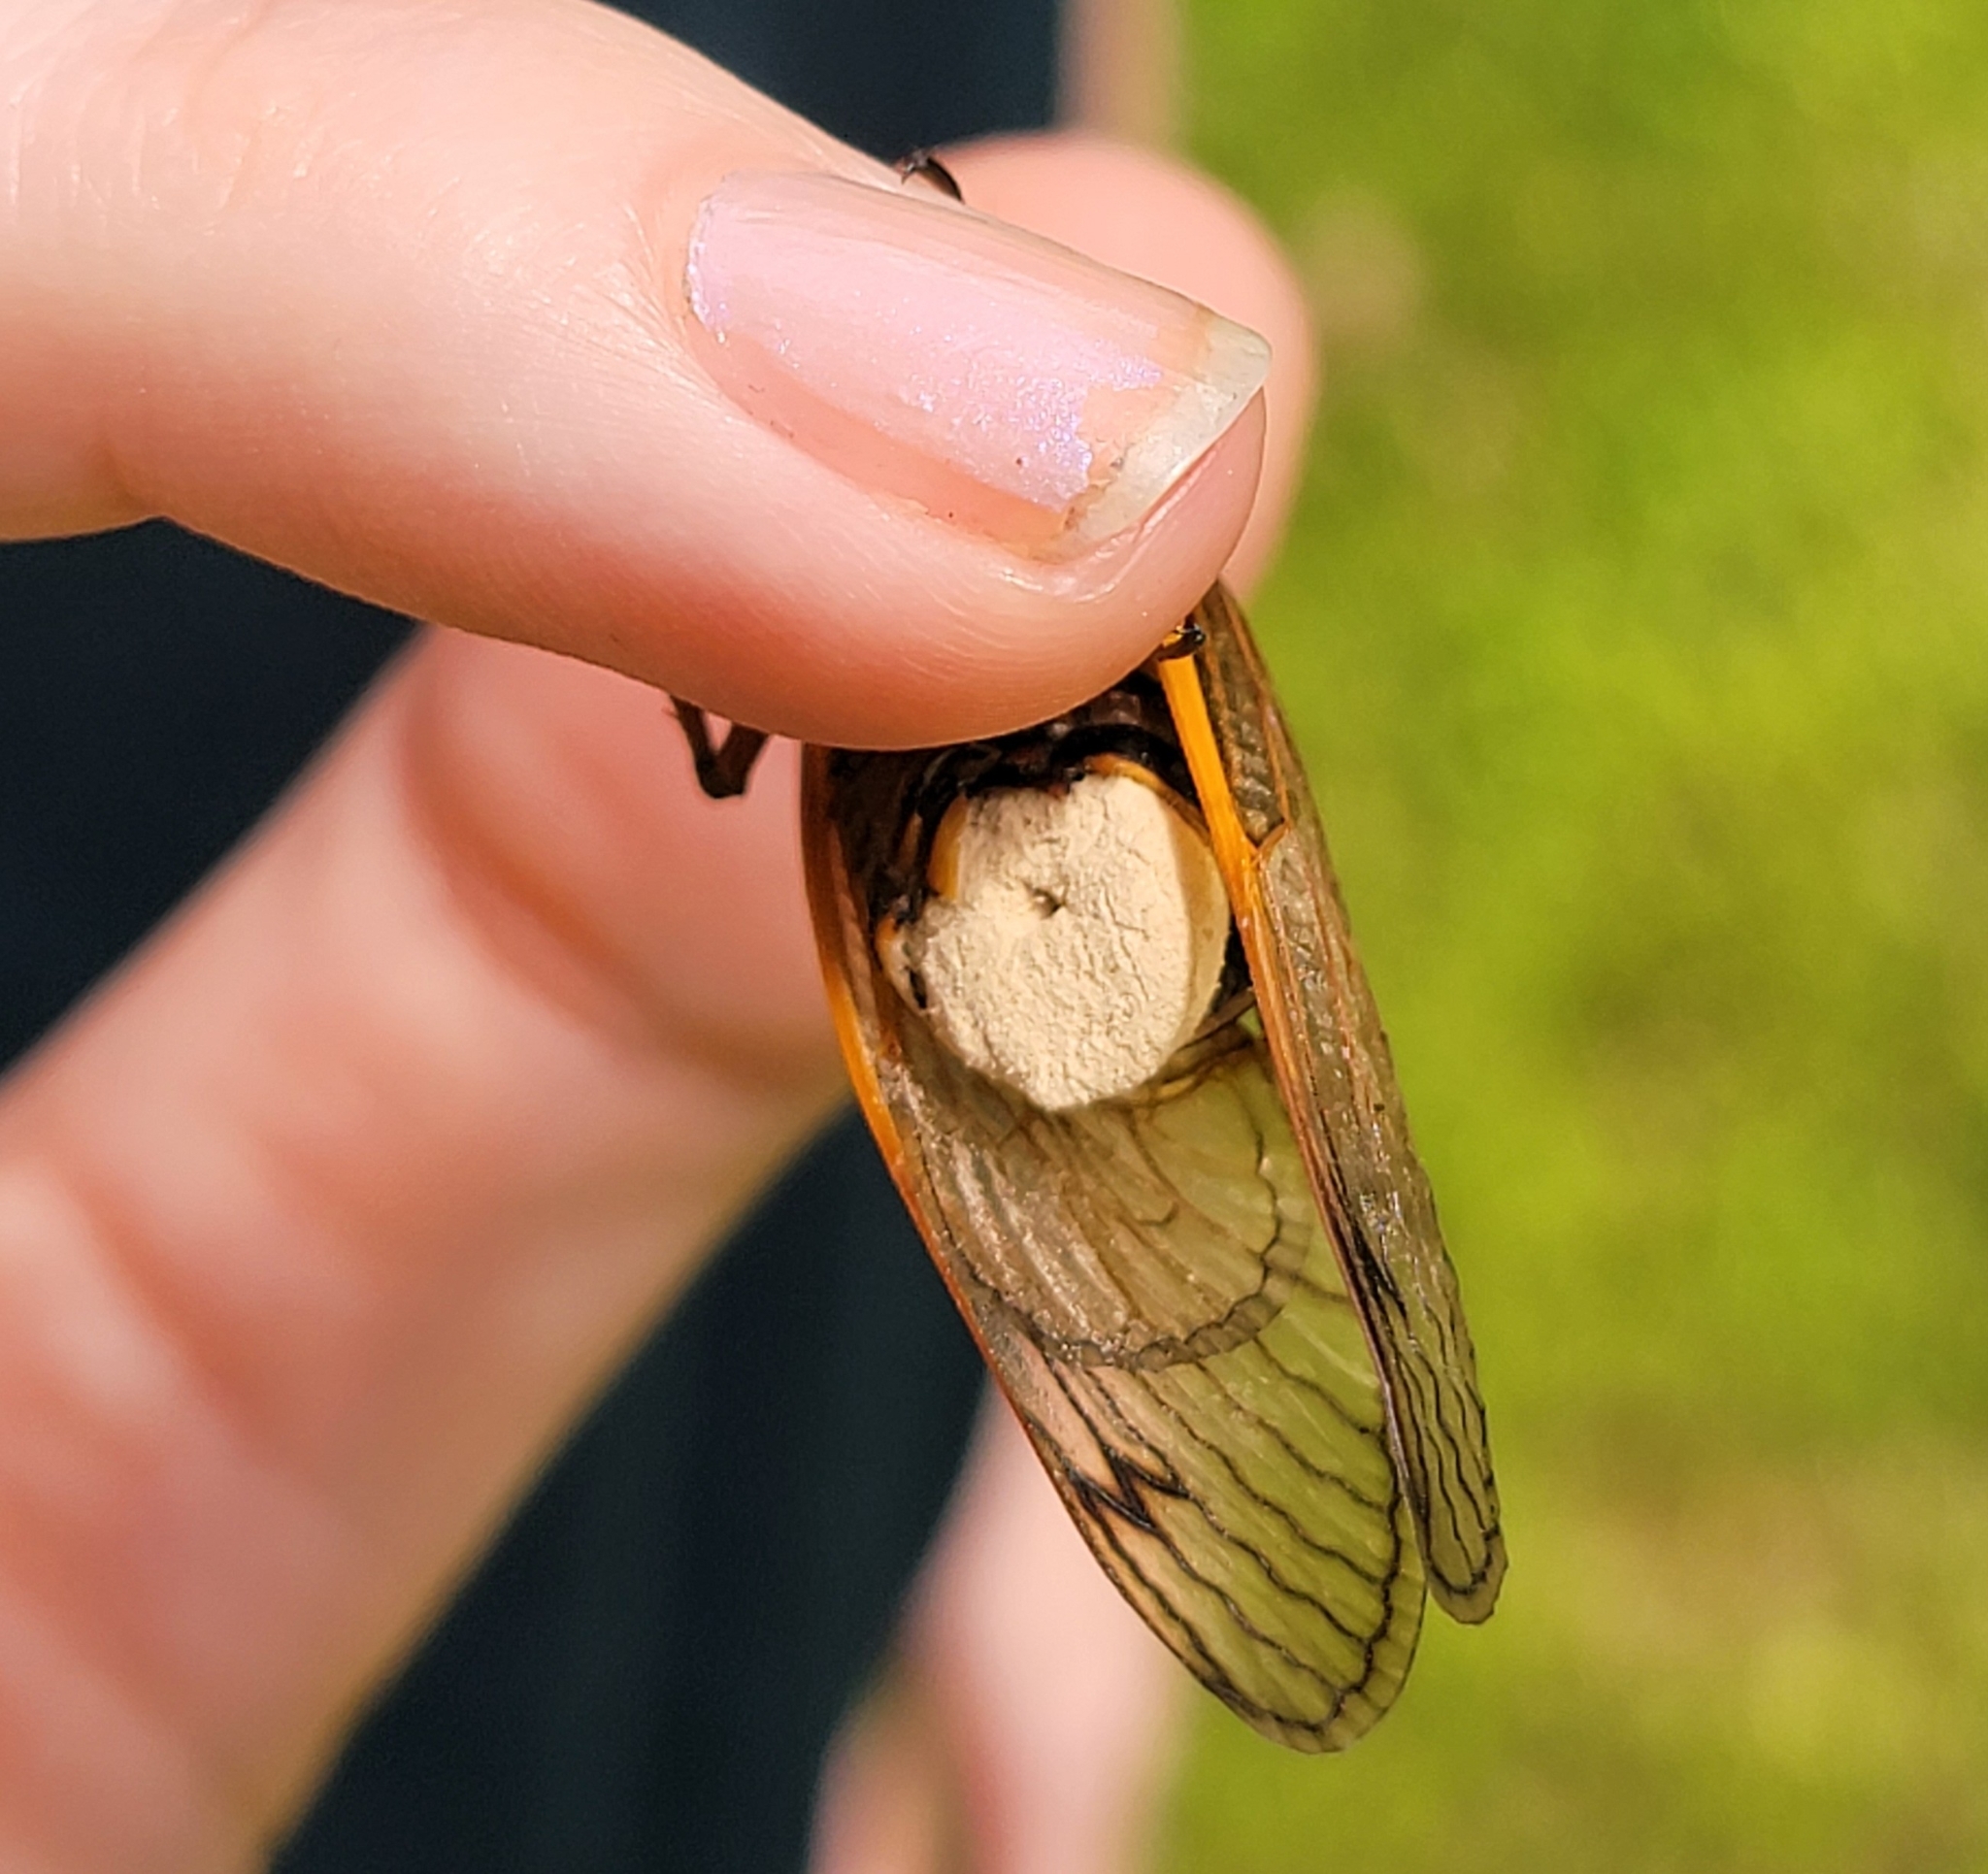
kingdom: Fungi
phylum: Entomophthoromycota
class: Entomophthoromycetes
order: Entomophthorales
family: Entomophthoraceae
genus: Massospora
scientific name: Massospora cicadina
